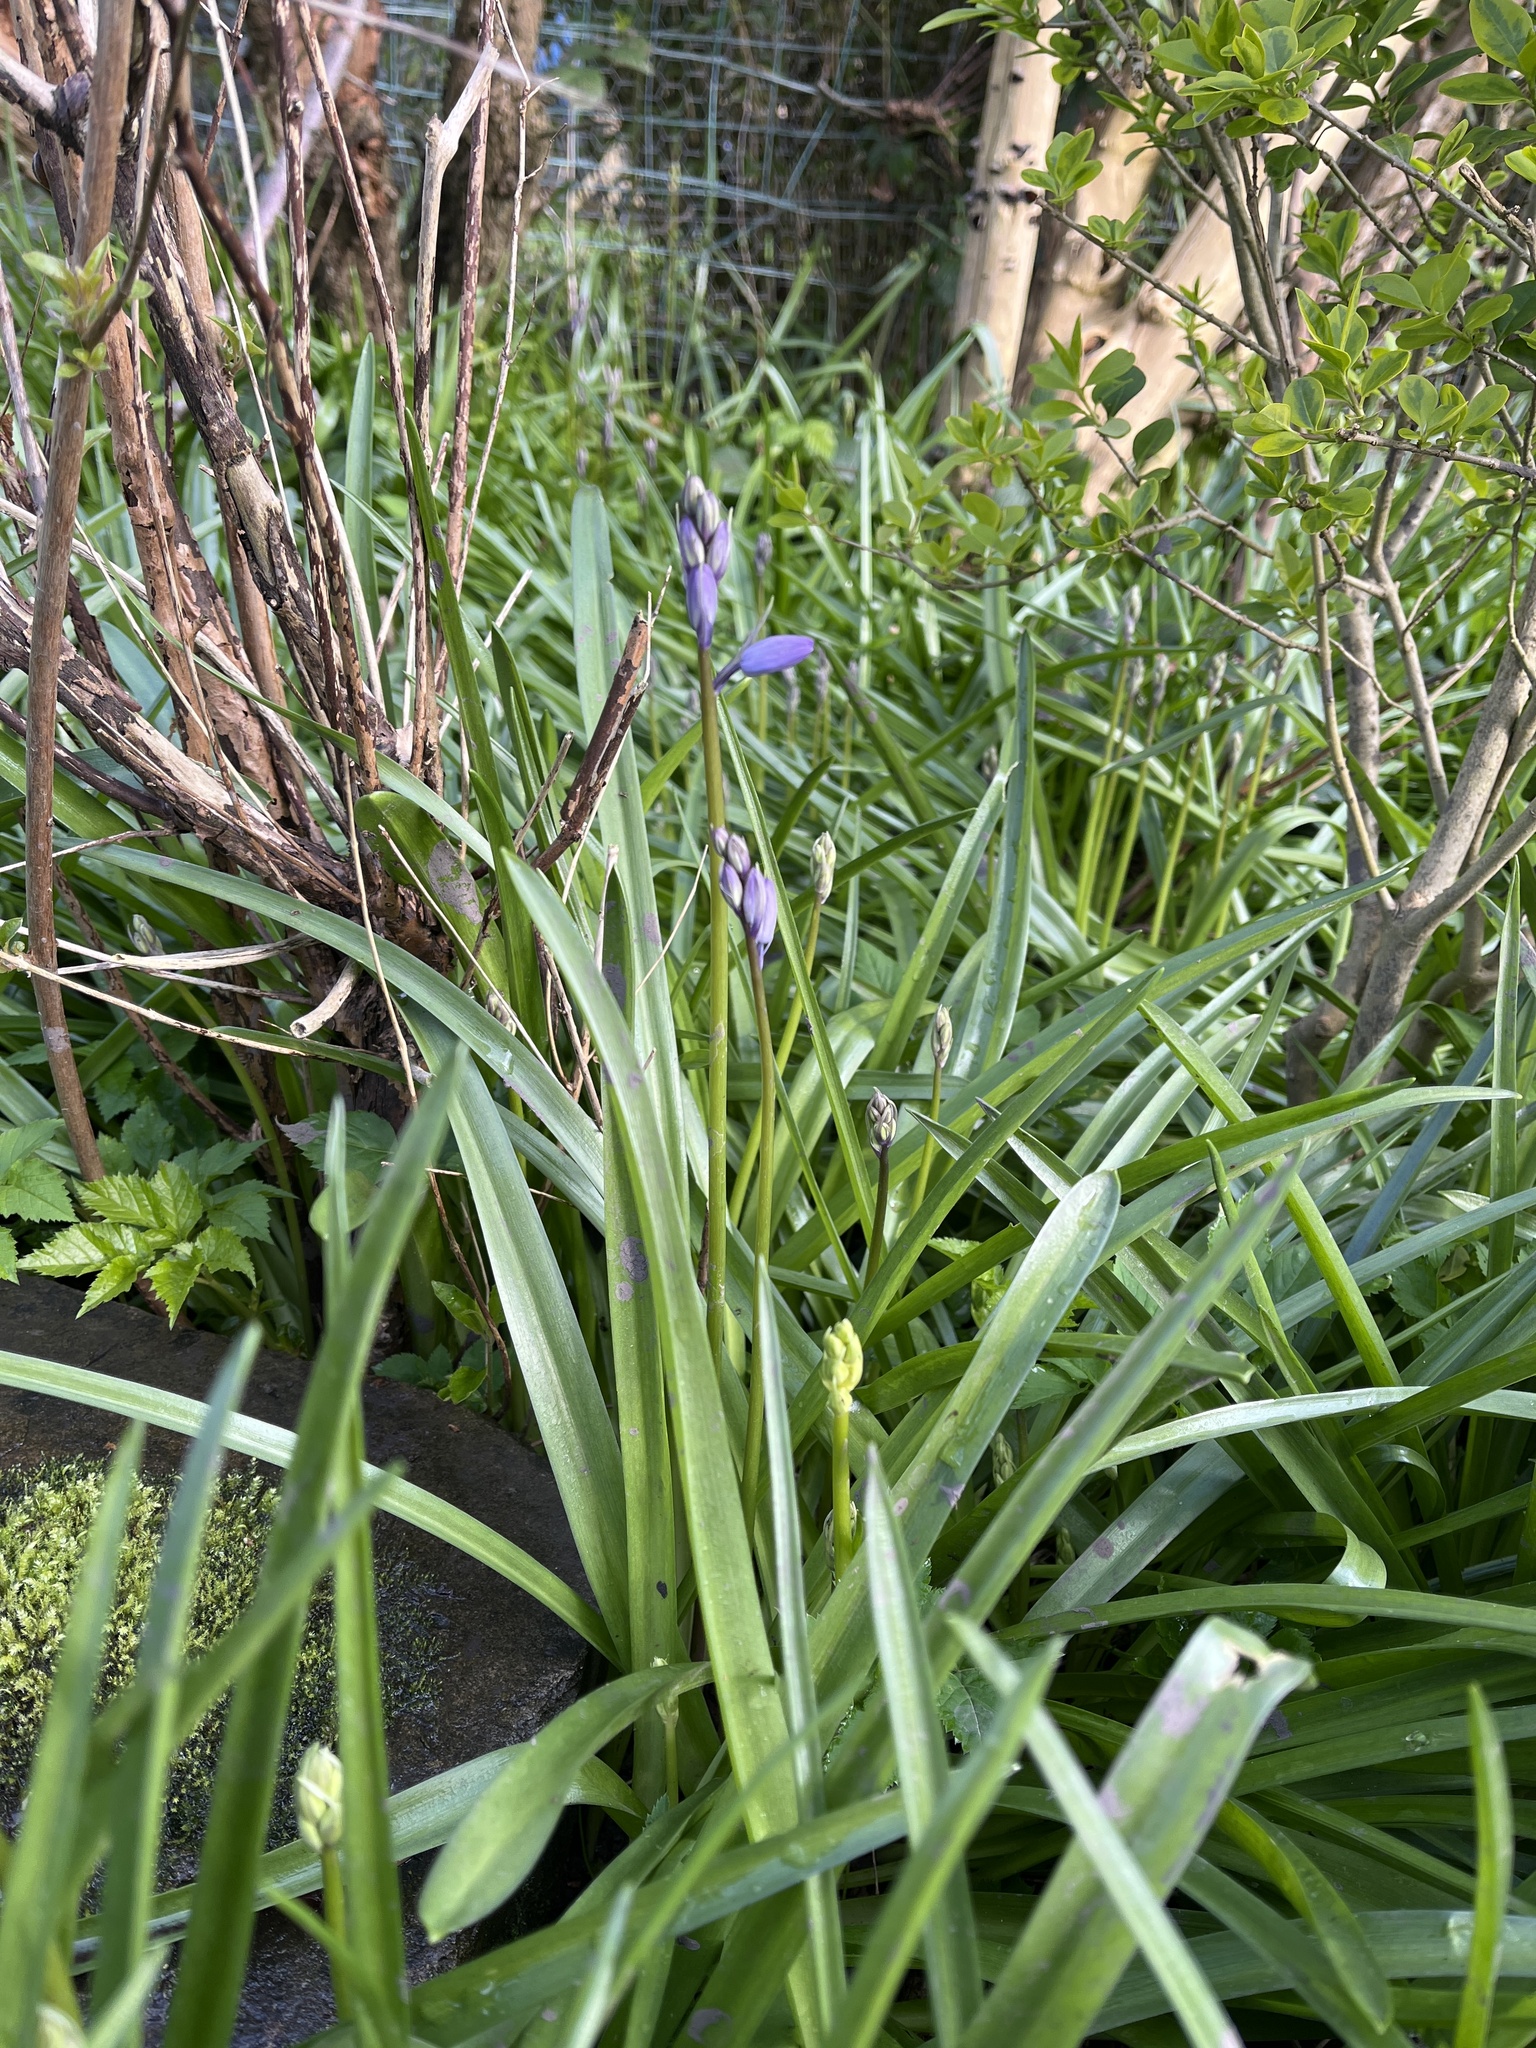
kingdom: Plantae
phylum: Tracheophyta
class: Liliopsida
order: Asparagales
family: Asparagaceae
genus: Hyacinthoides
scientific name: Hyacinthoides massartiana
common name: Hyacinthoides
